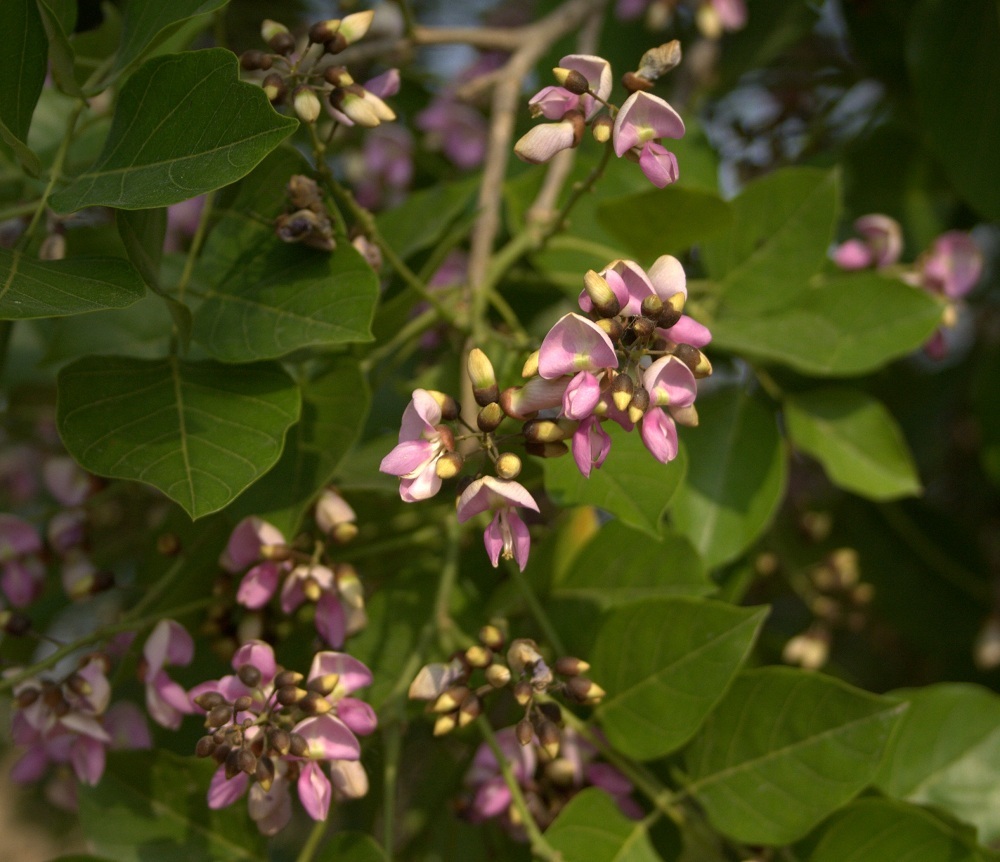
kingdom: Plantae
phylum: Tracheophyta
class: Magnoliopsida
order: Fabales
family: Fabaceae
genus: Pongamia
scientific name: Pongamia pinnata
